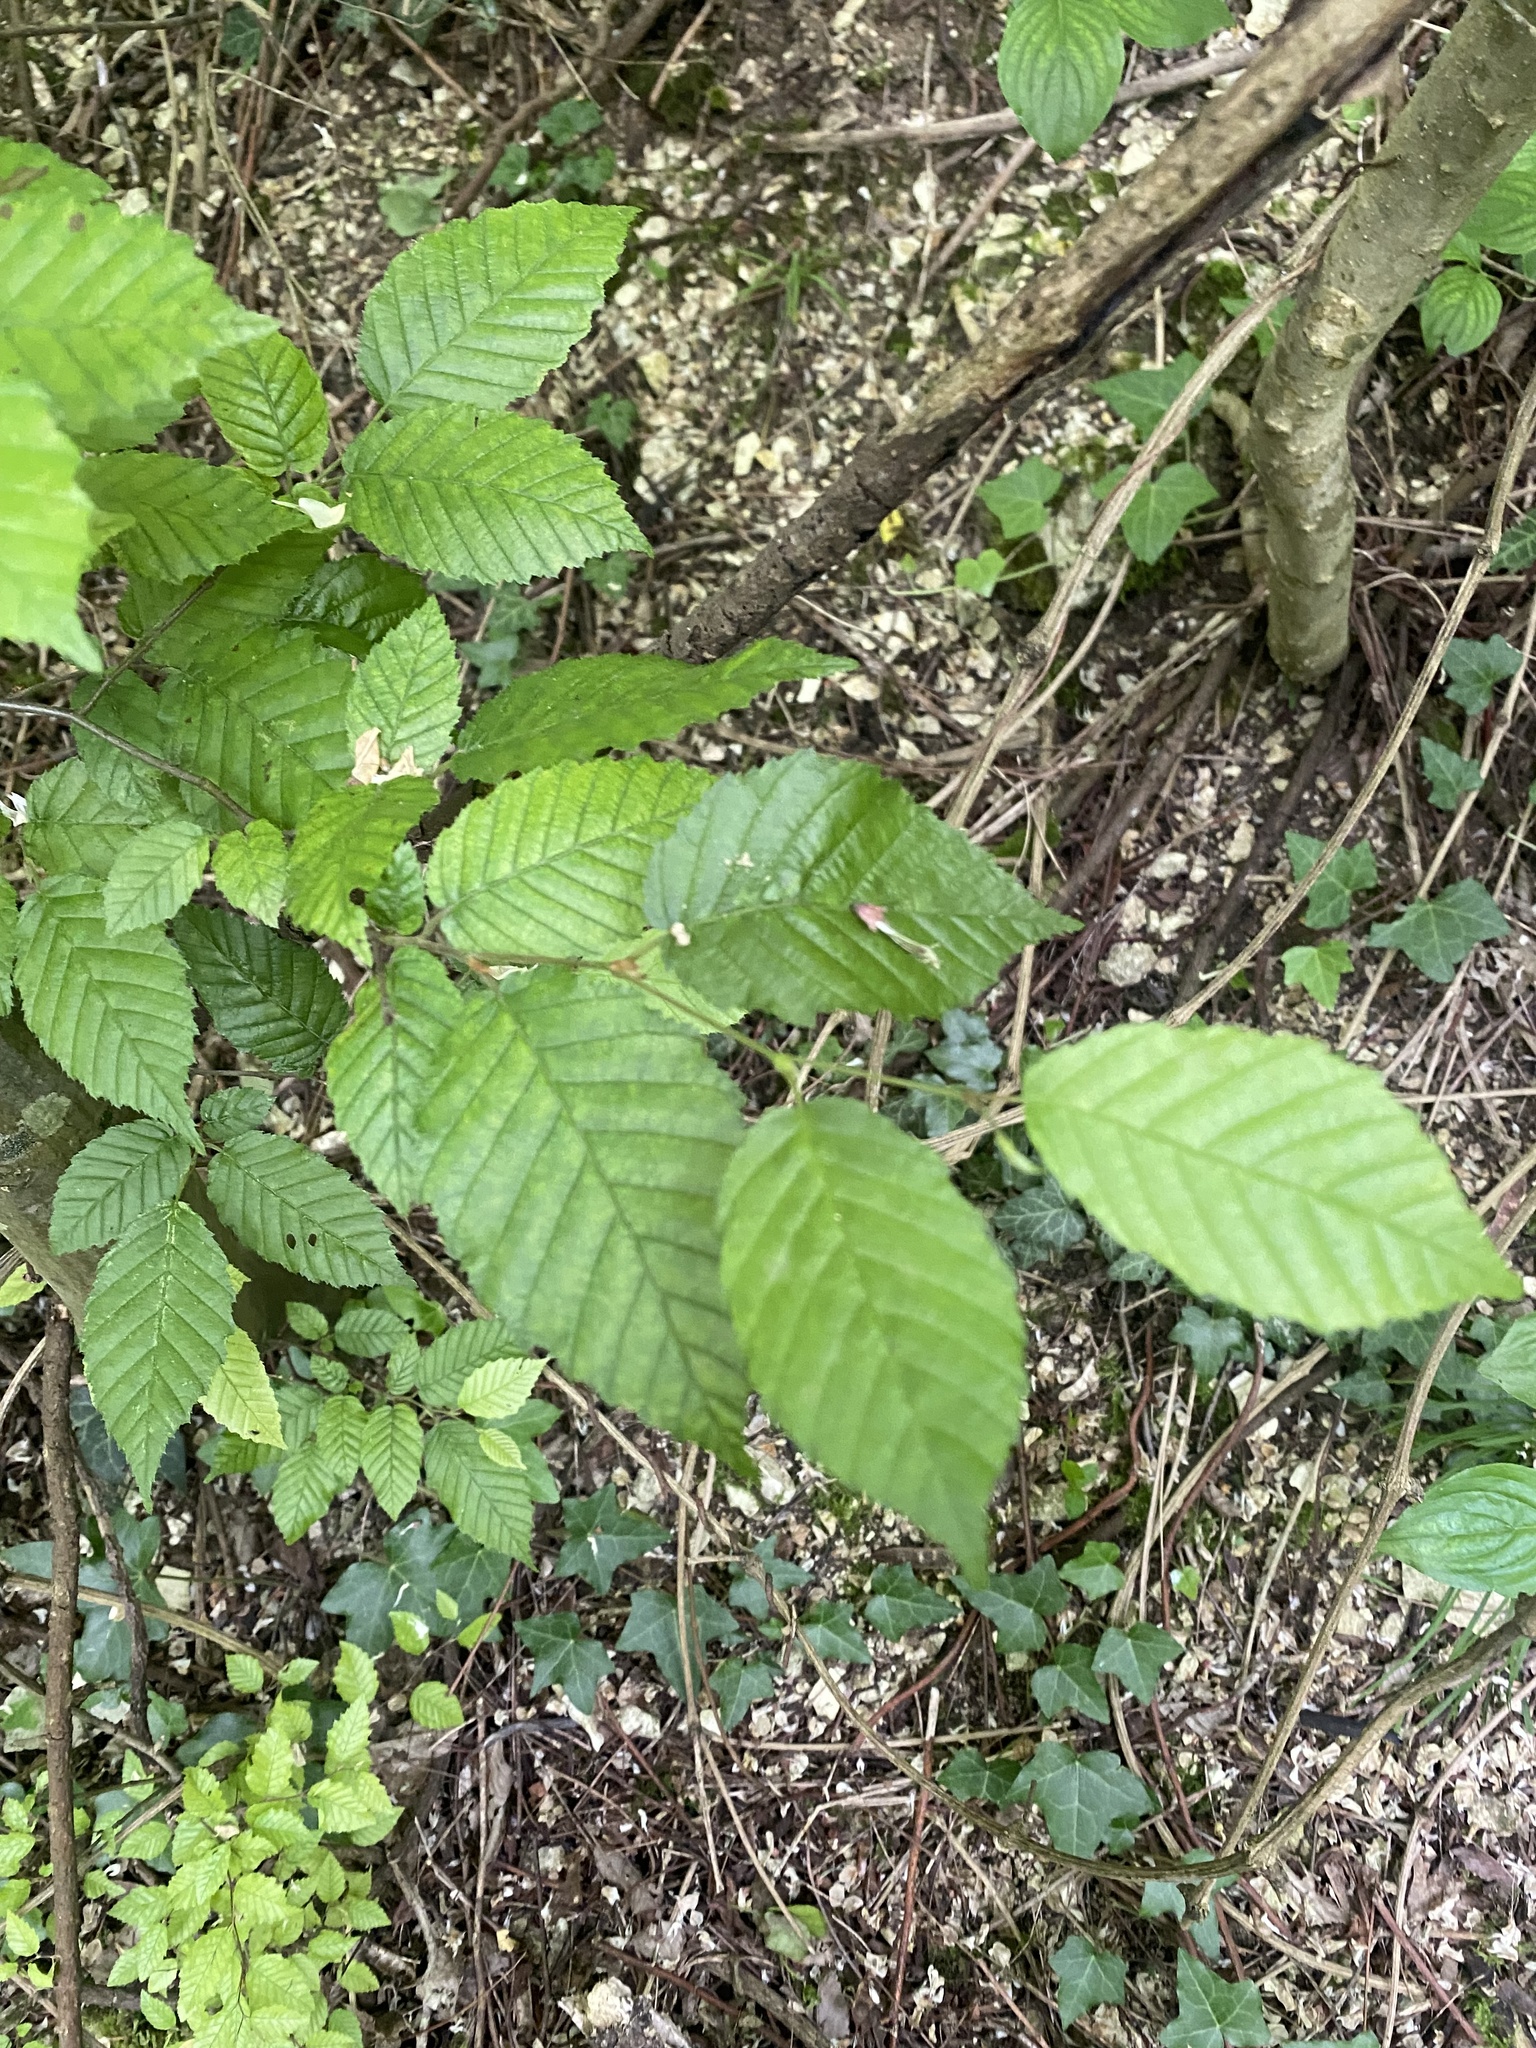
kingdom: Plantae
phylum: Tracheophyta
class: Magnoliopsida
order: Fagales
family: Betulaceae
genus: Carpinus
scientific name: Carpinus betulus
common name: Hornbeam
